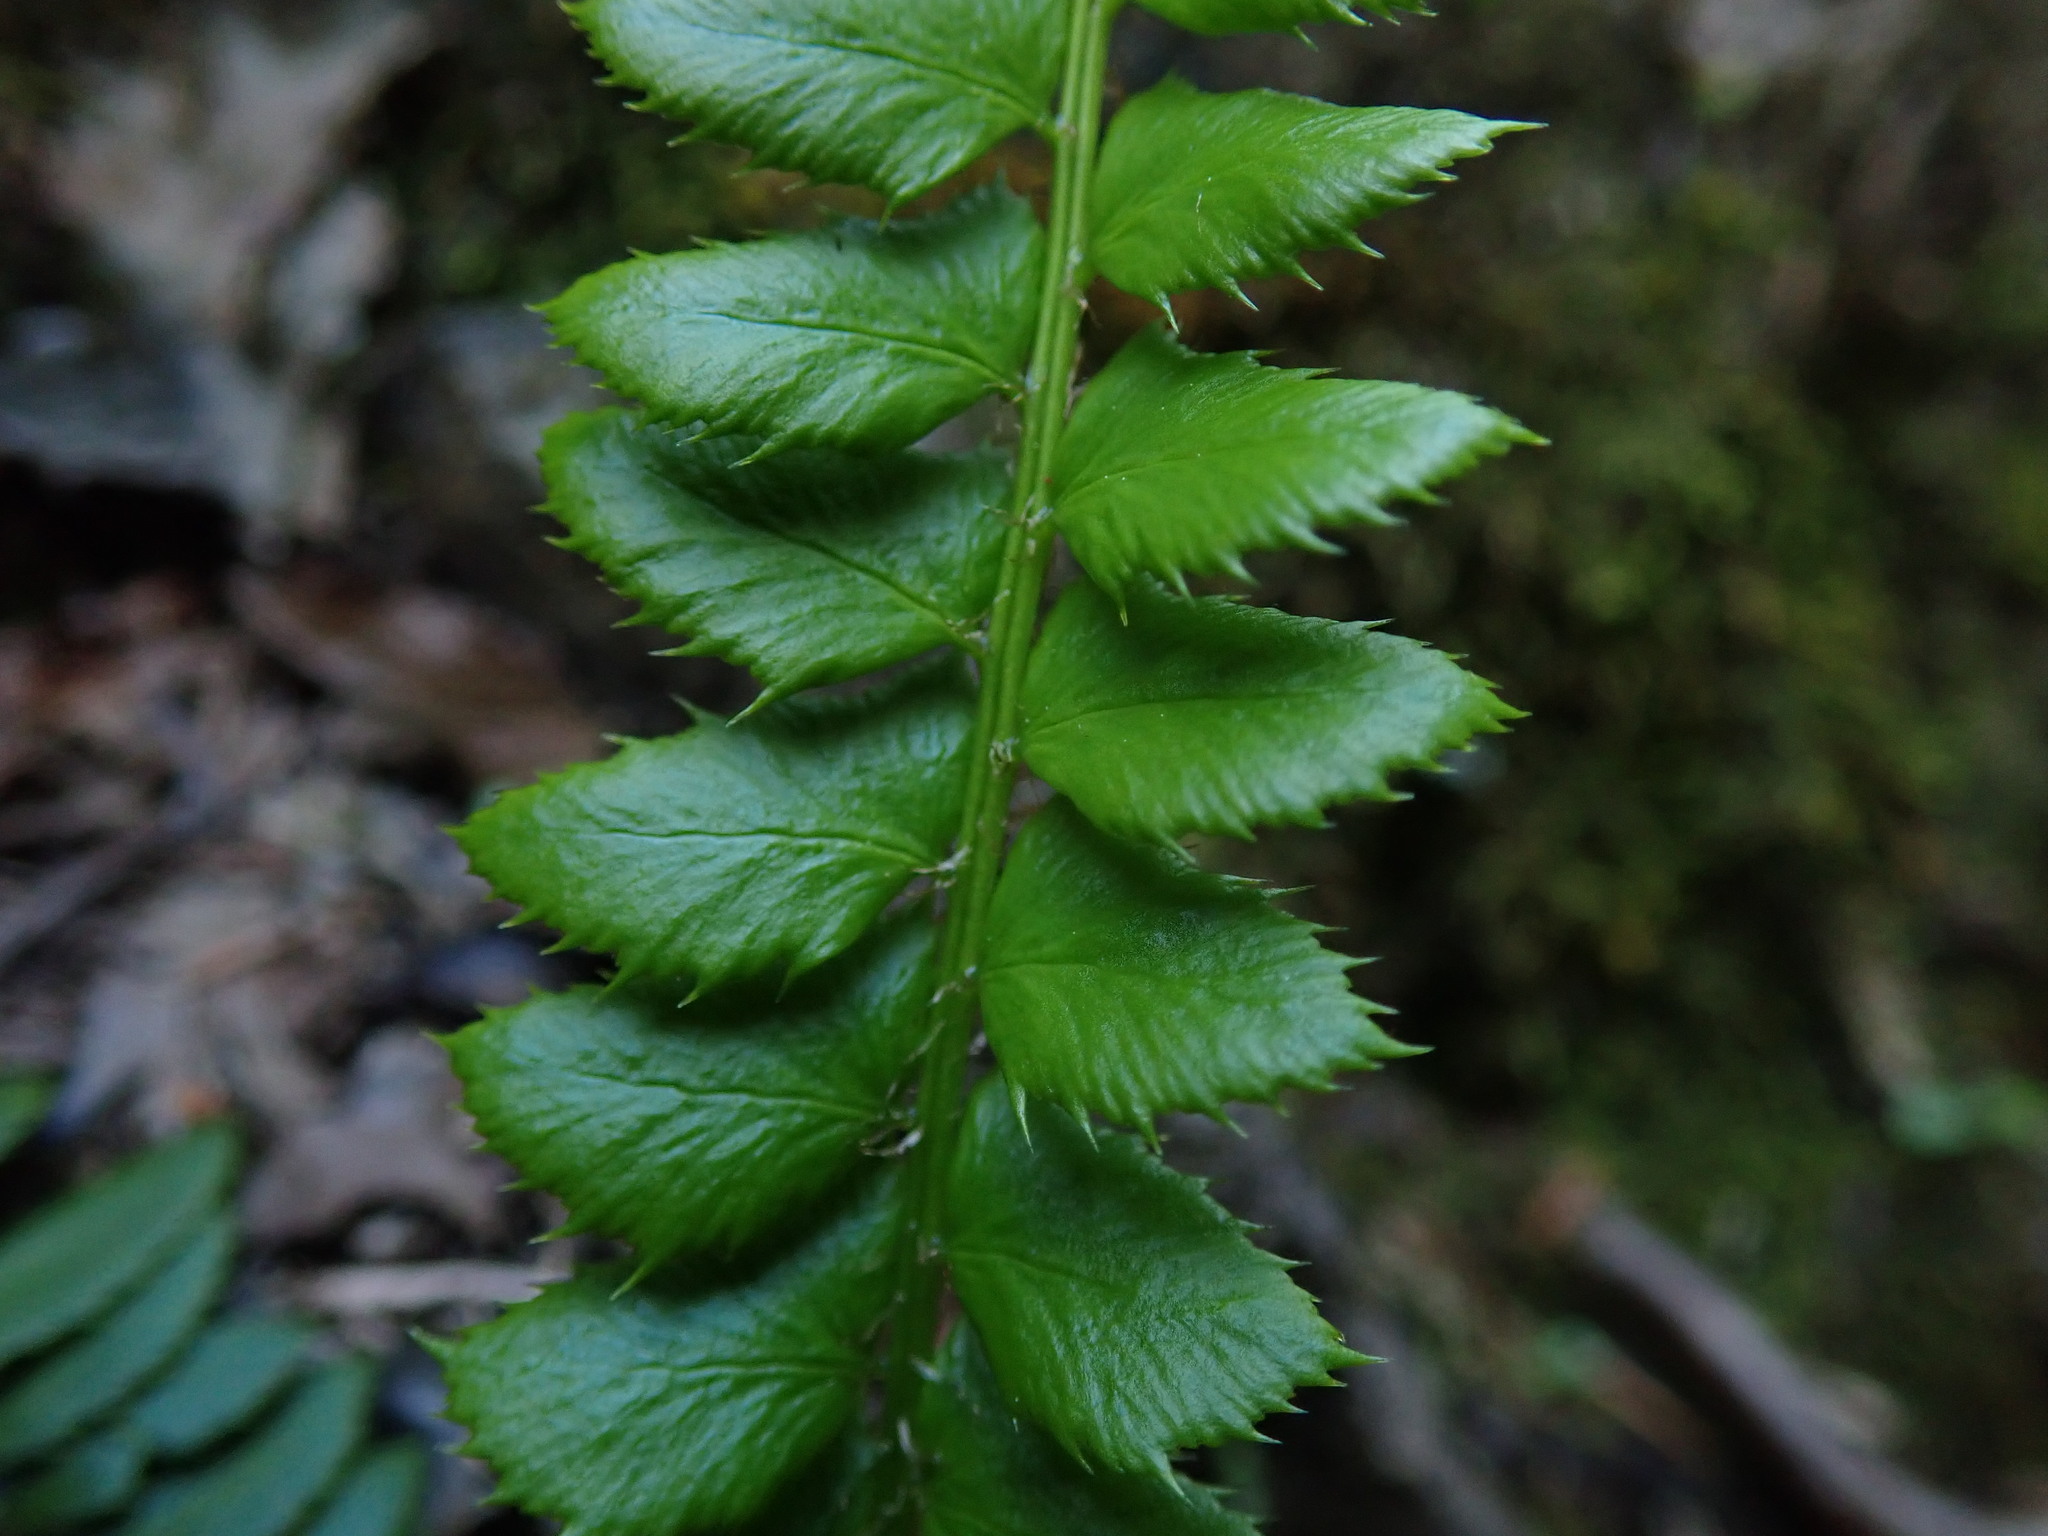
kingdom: Plantae
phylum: Tracheophyta
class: Polypodiopsida
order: Polypodiales
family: Dryopteridaceae
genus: Polystichum
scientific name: Polystichum lonchitis
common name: Holly fern
